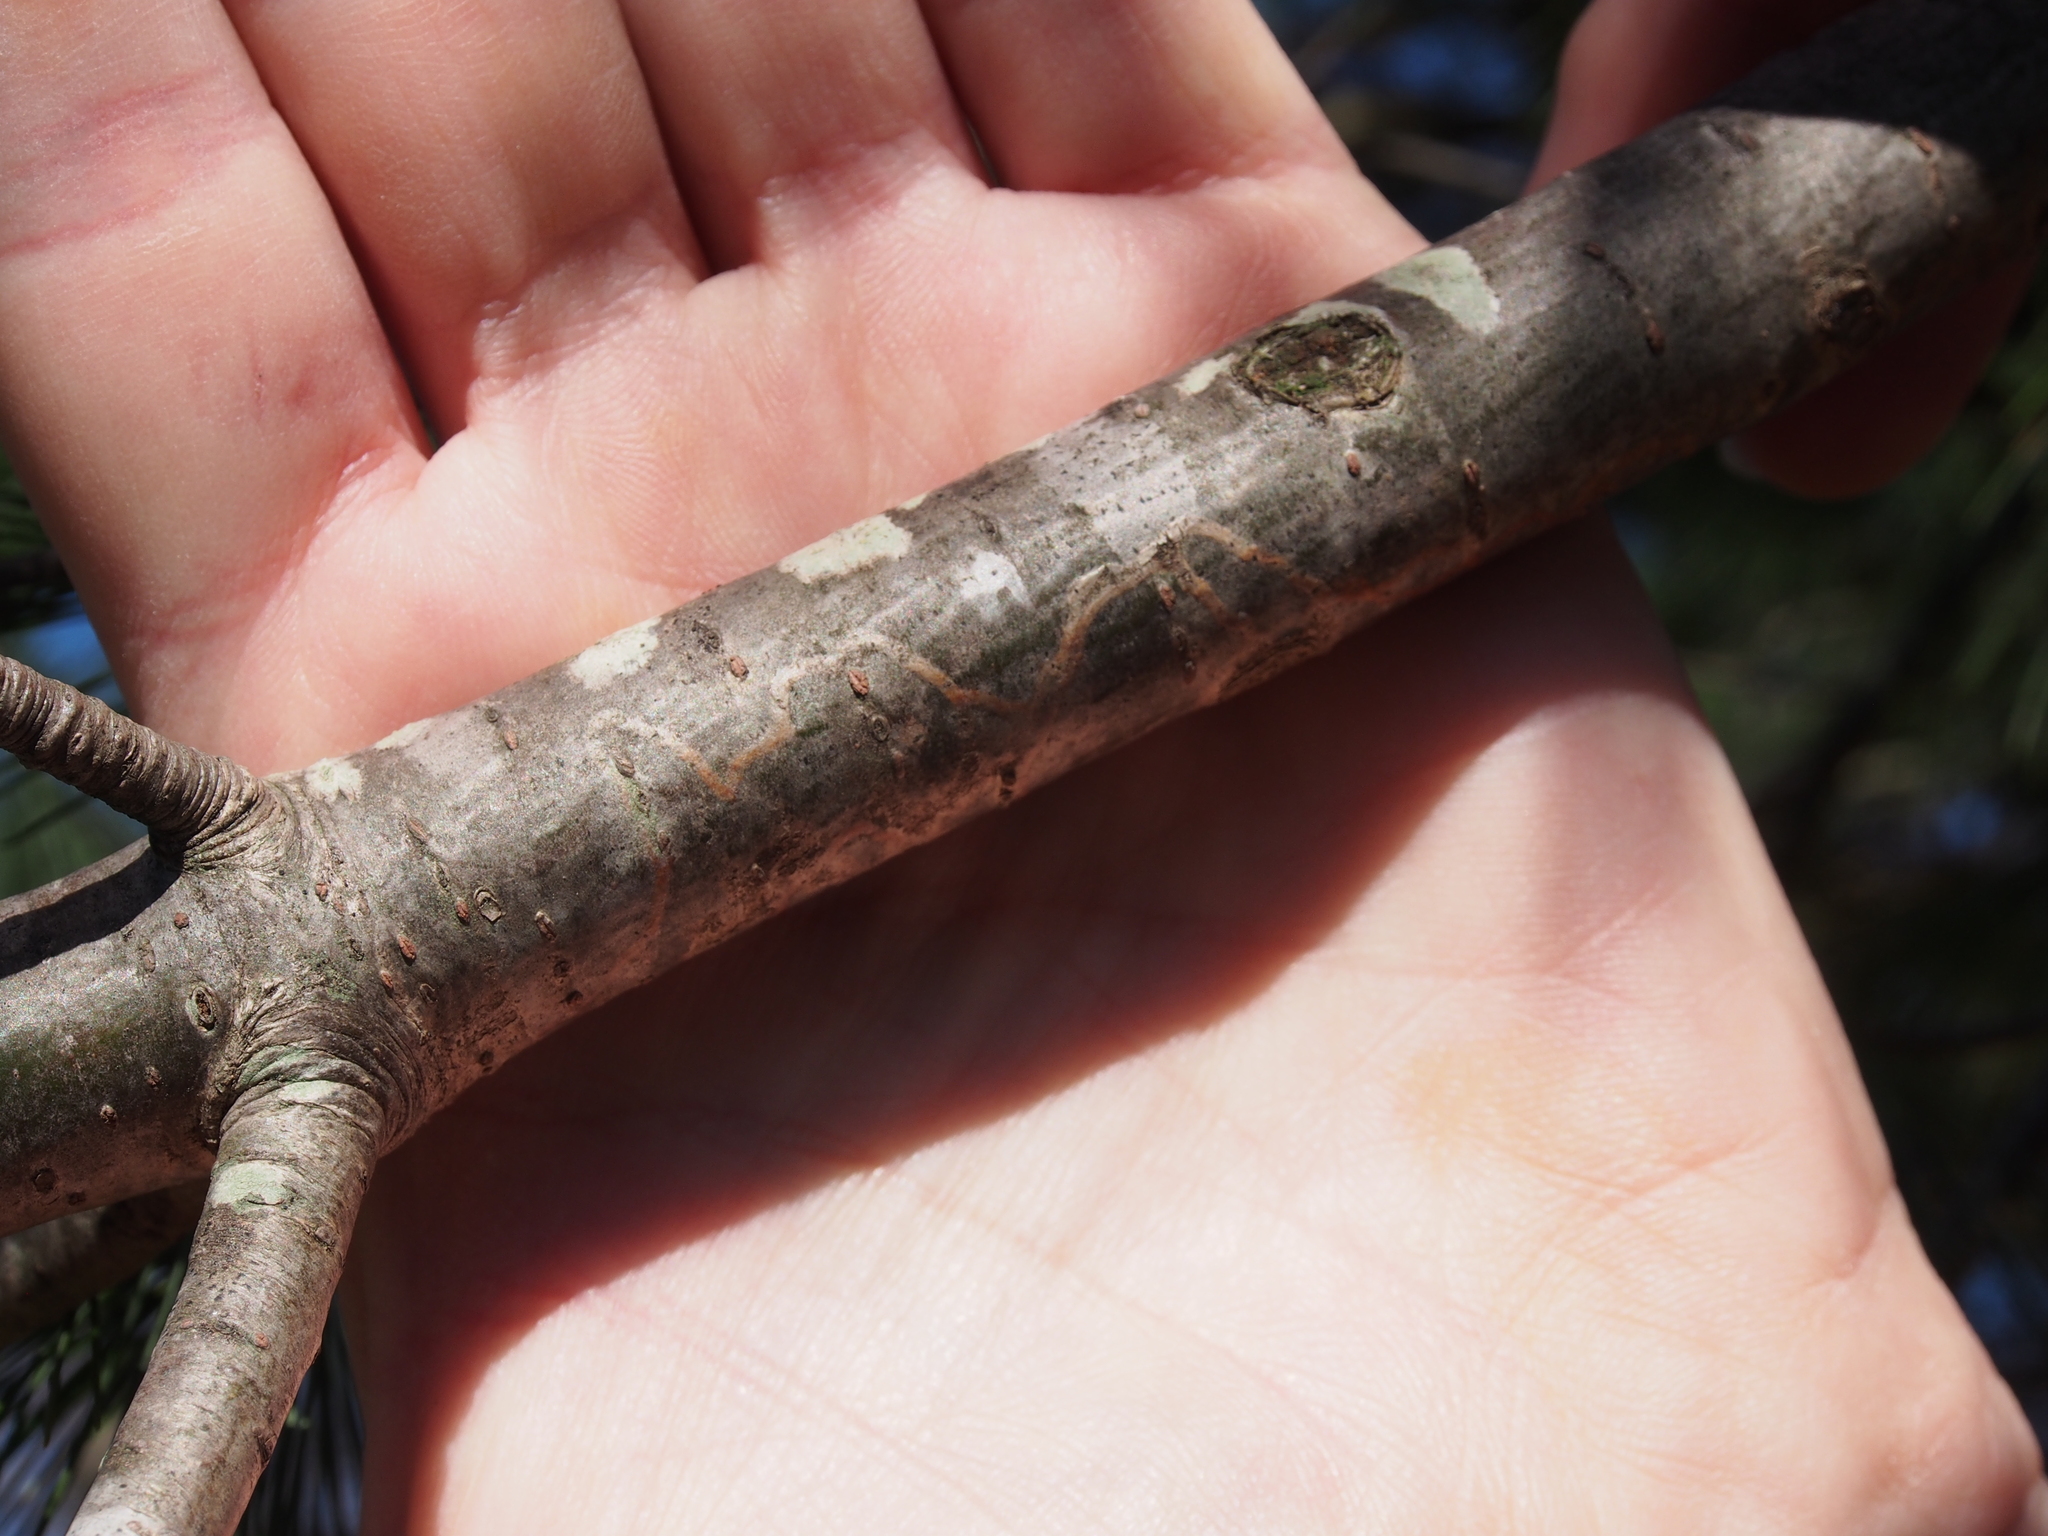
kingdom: Animalia
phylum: Arthropoda
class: Insecta
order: Lepidoptera
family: Gracillariidae
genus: Marmara
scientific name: Marmara fasciella
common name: White pine barkminer moth
